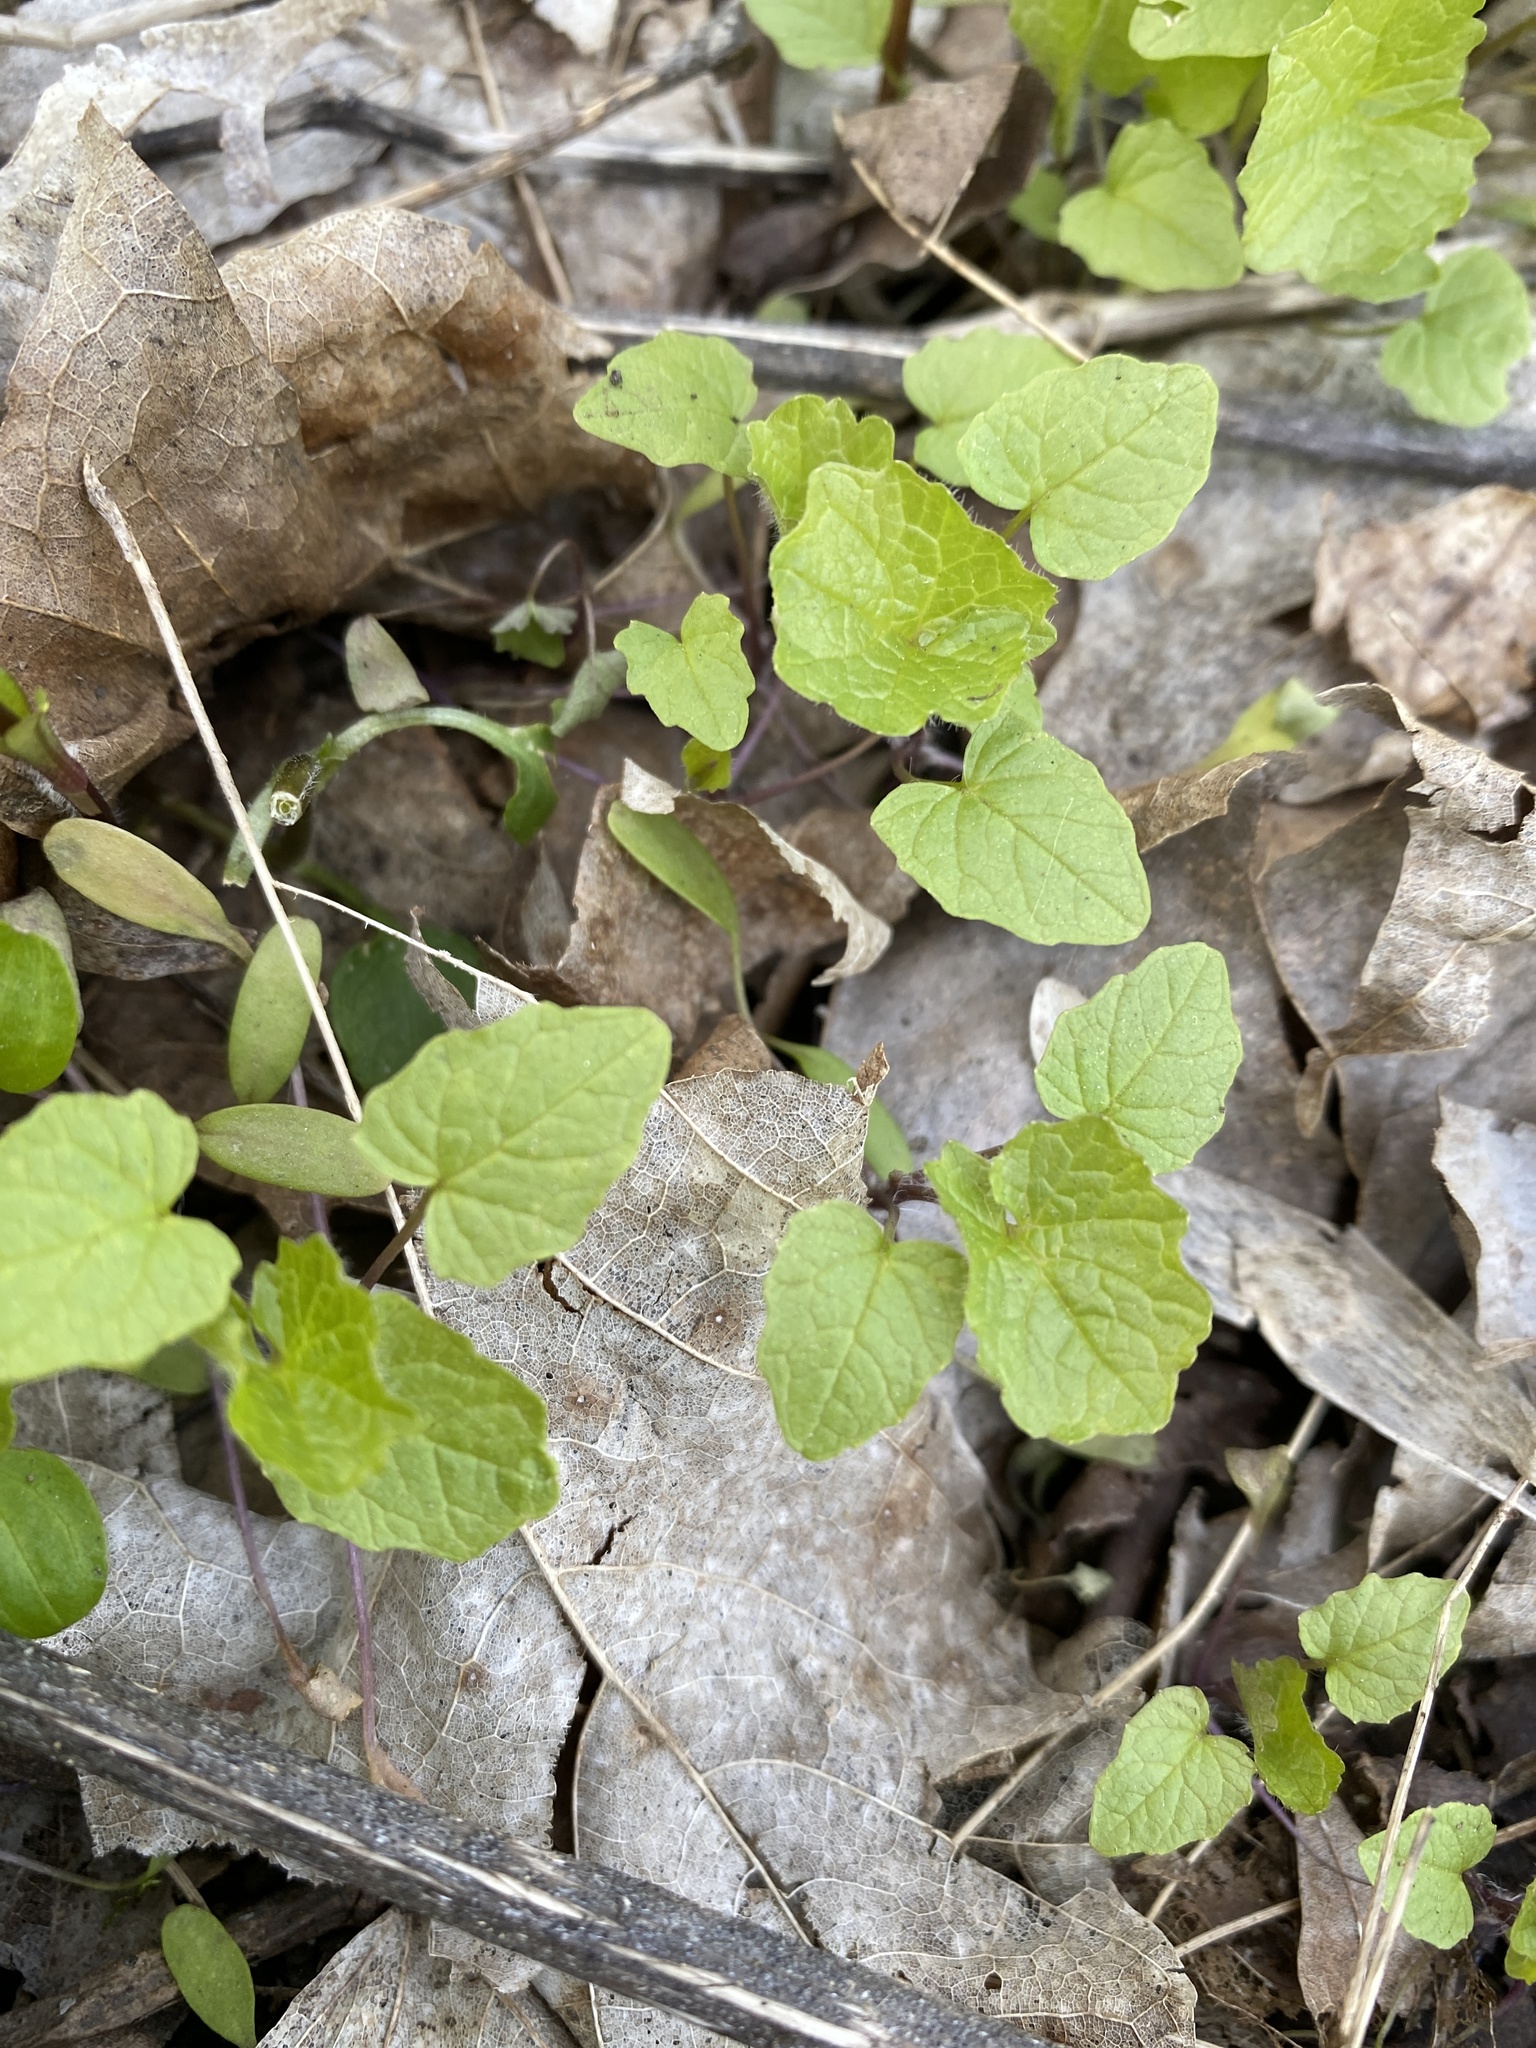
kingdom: Plantae
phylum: Tracheophyta
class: Magnoliopsida
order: Brassicales
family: Brassicaceae
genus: Alliaria
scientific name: Alliaria petiolata
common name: Garlic mustard
